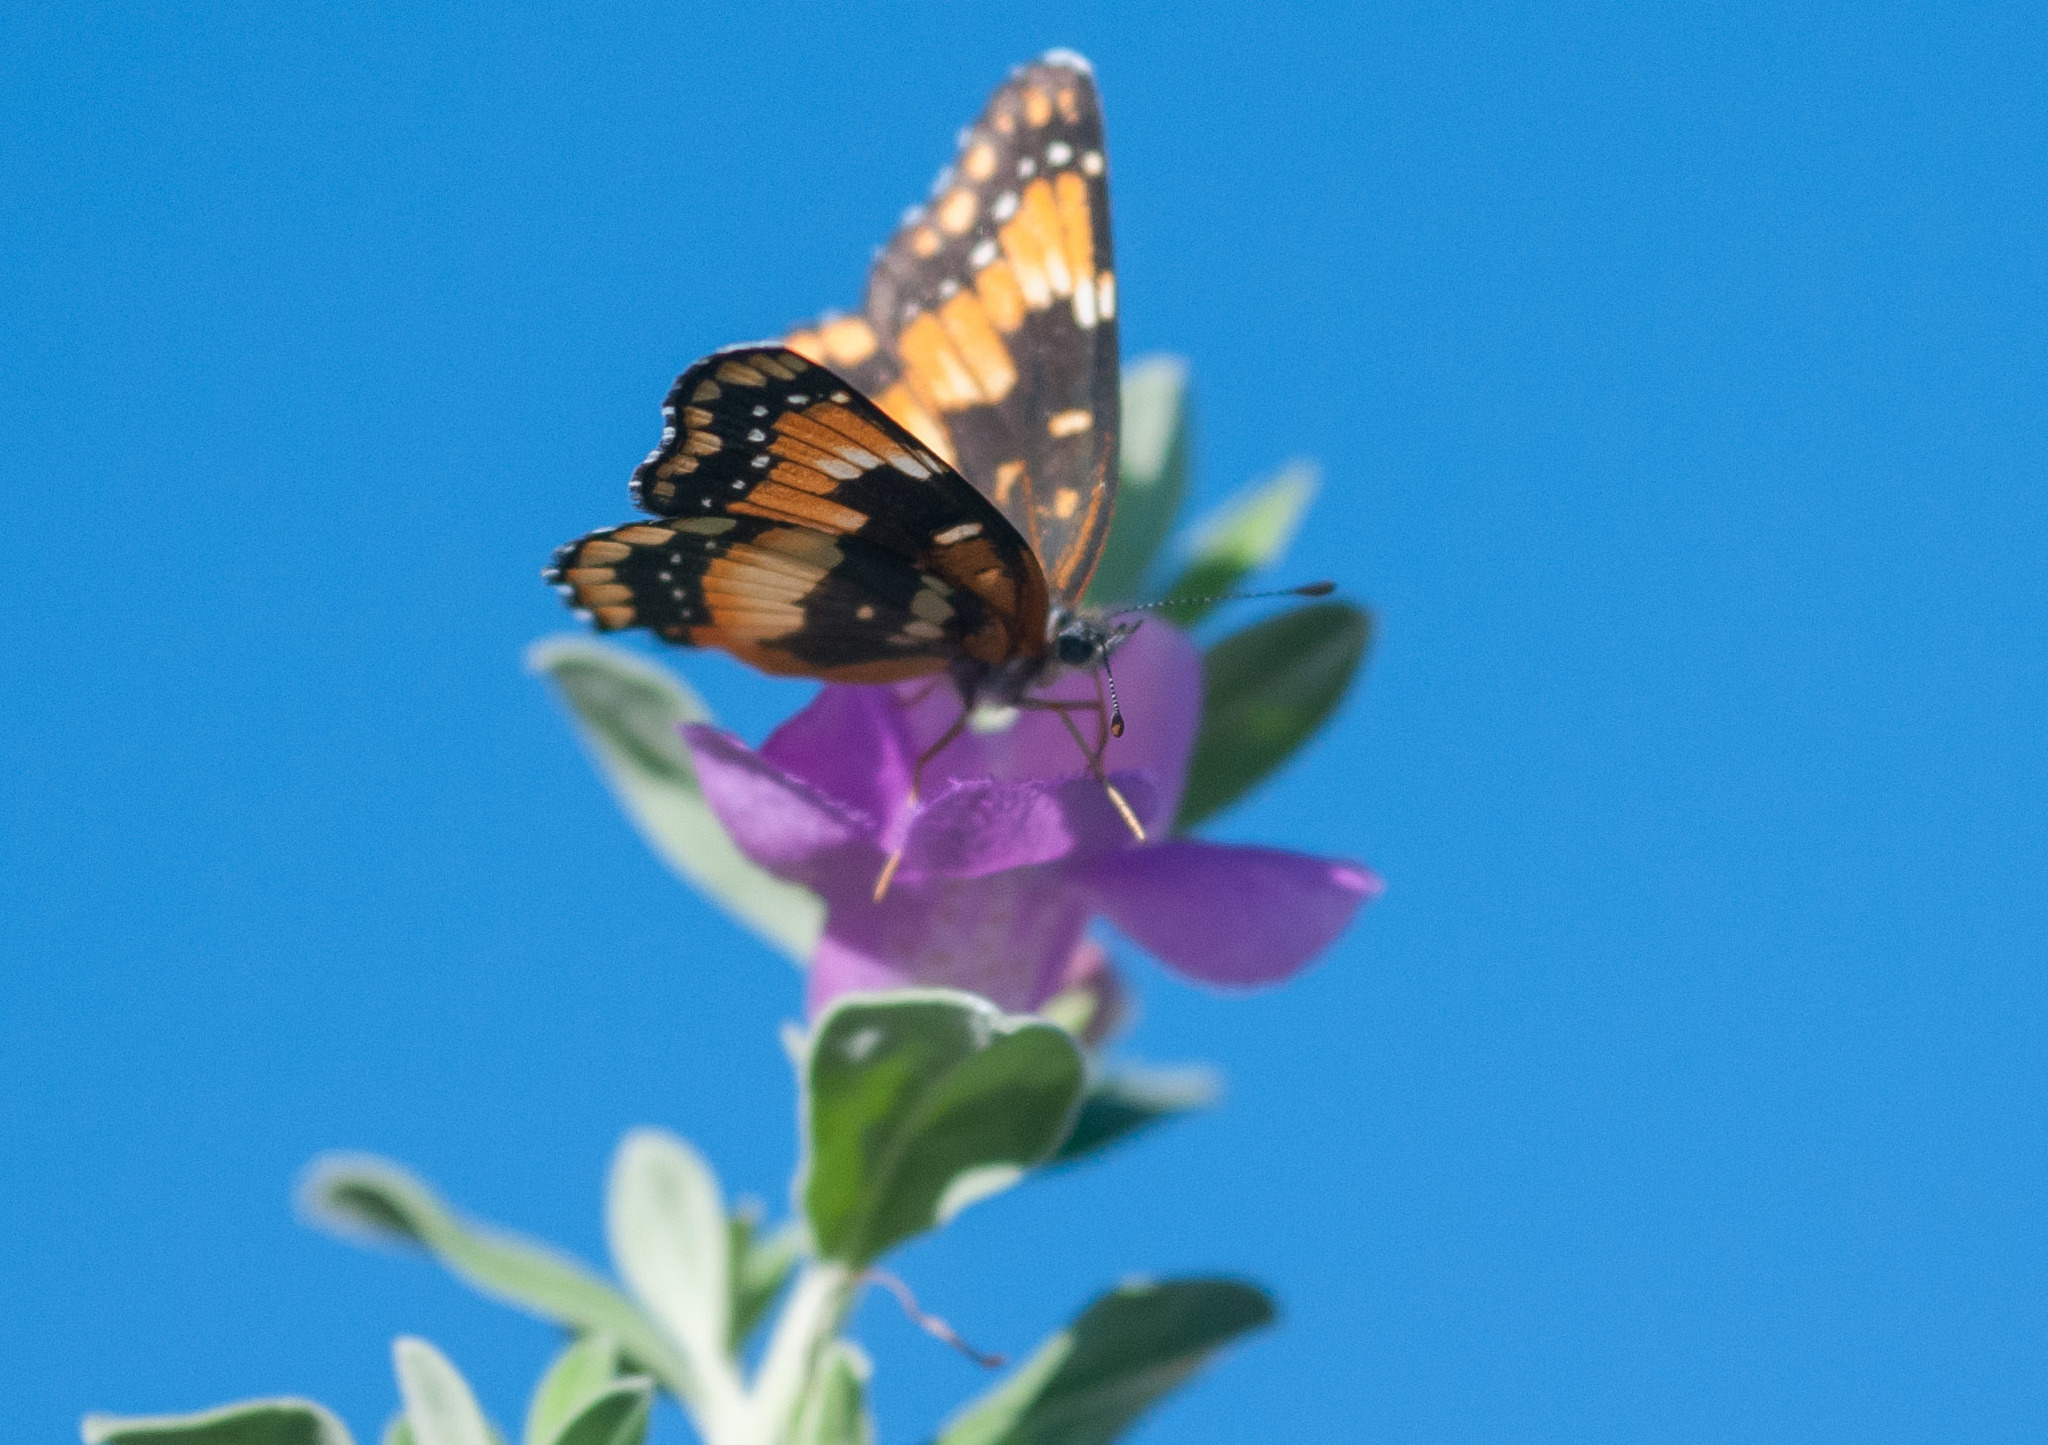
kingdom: Animalia
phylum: Arthropoda
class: Insecta
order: Lepidoptera
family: Nymphalidae
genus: Chlosyne
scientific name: Chlosyne californica
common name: California patch
